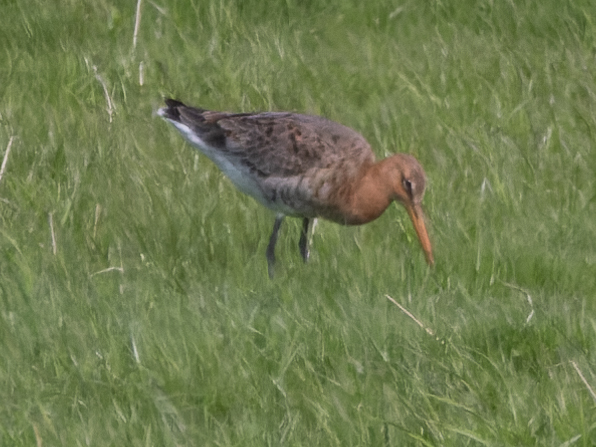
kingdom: Animalia
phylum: Chordata
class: Aves
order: Charadriiformes
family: Scolopacidae
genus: Limosa
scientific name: Limosa limosa
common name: Black-tailed godwit
